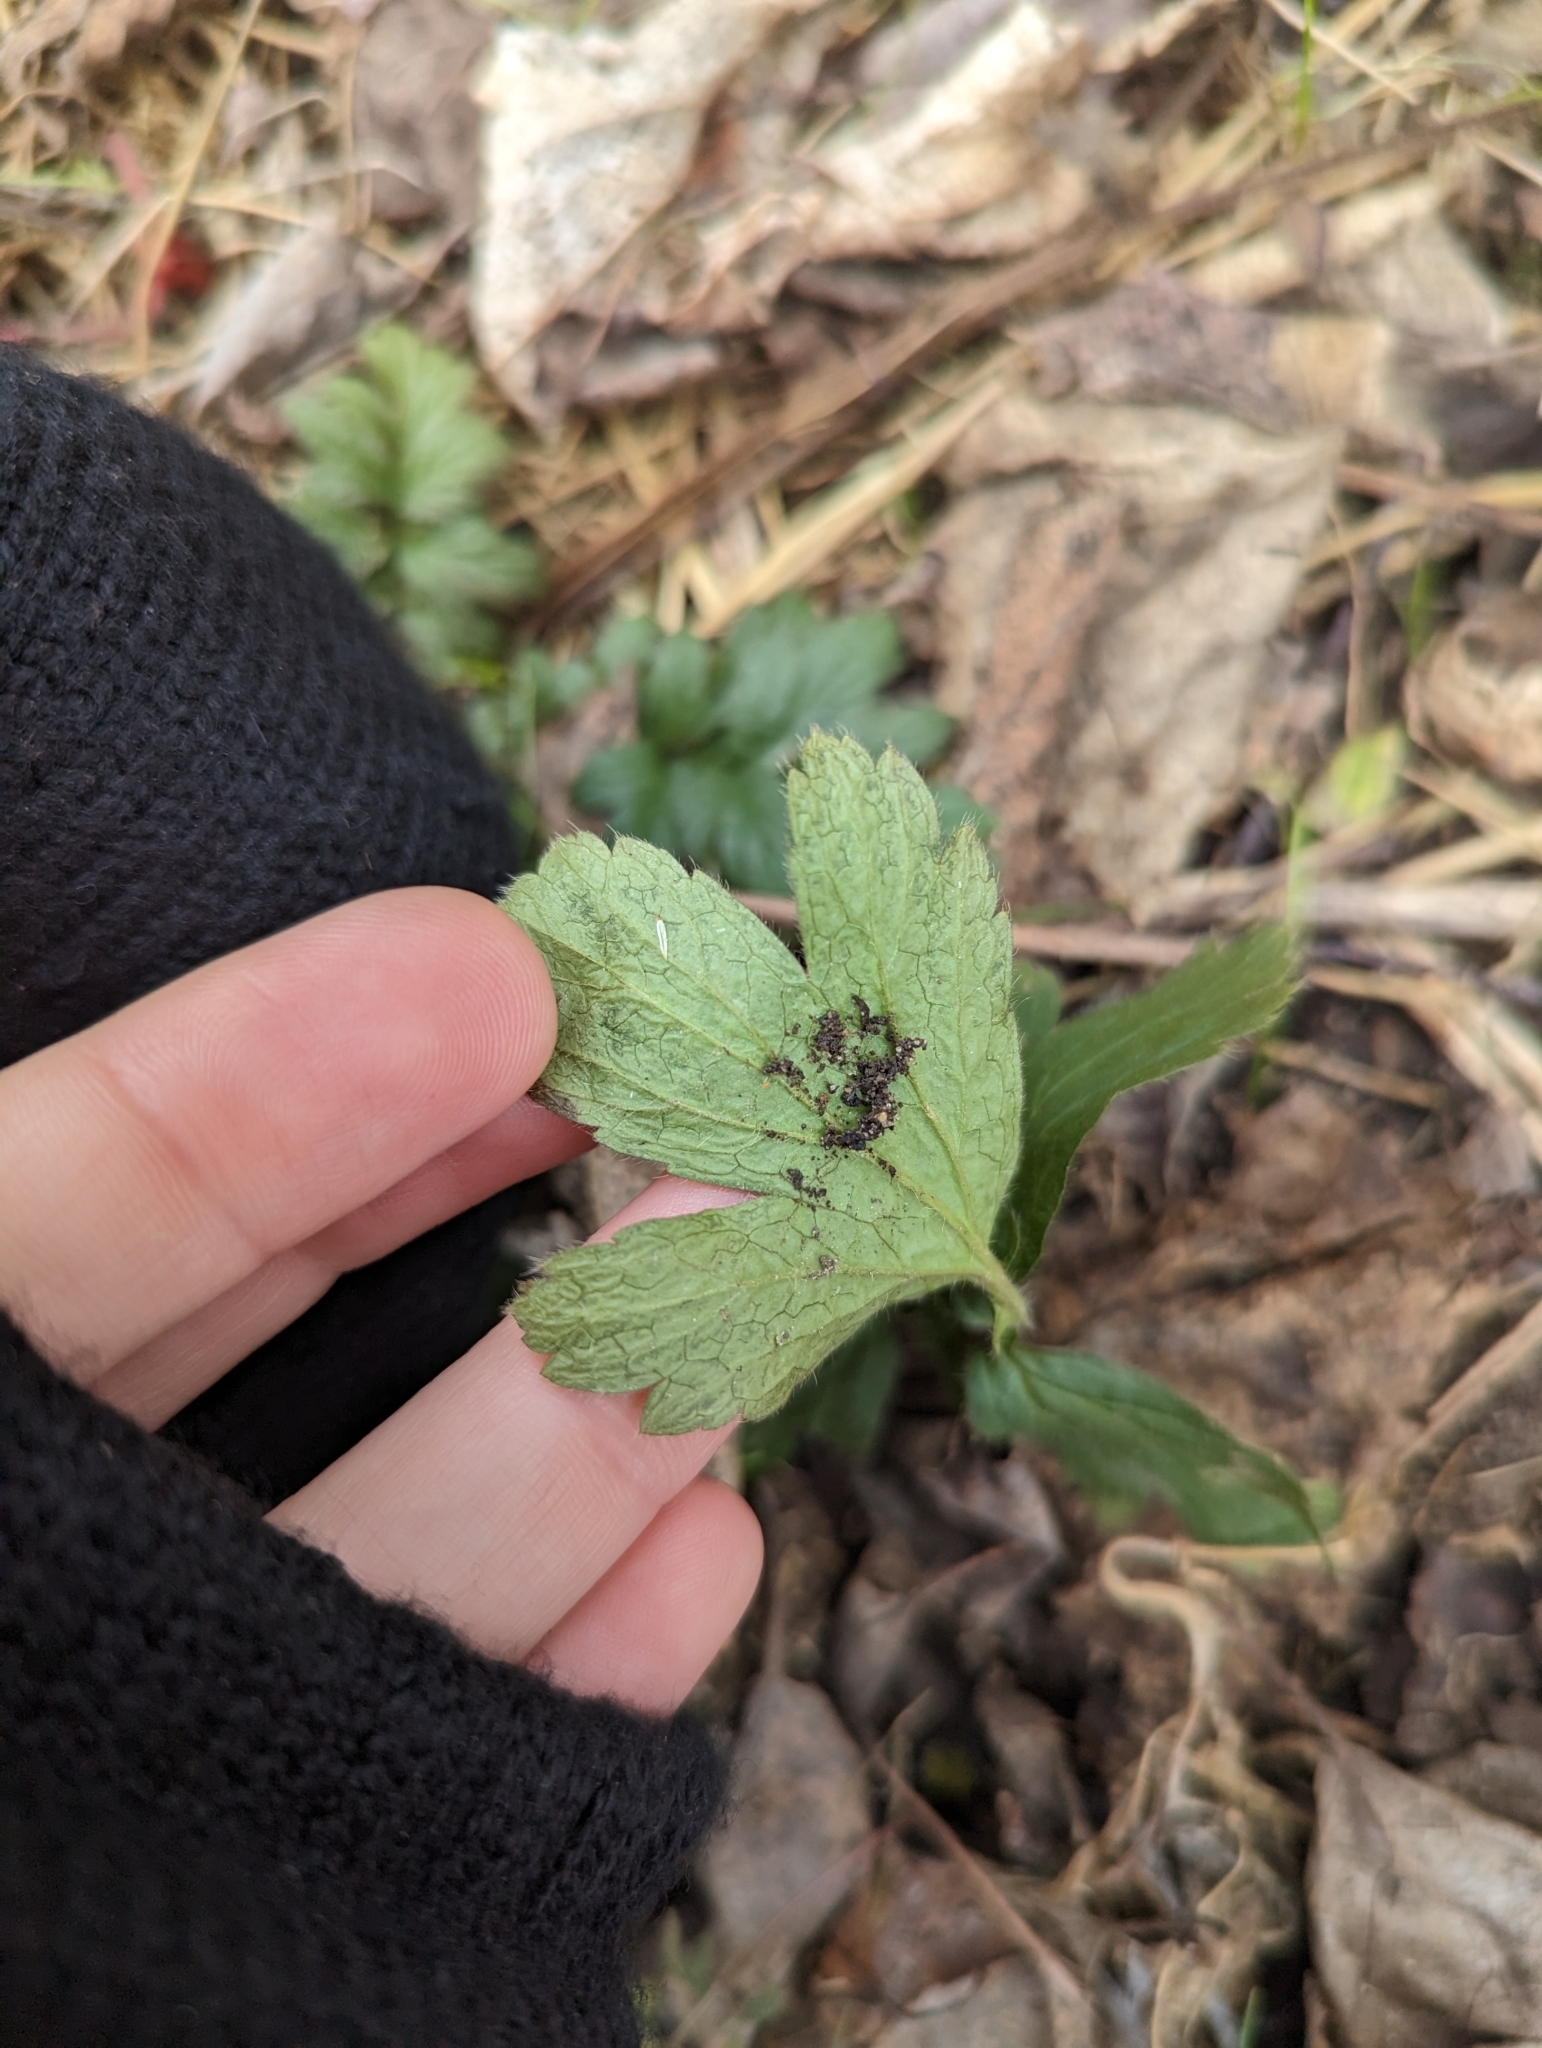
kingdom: Plantae
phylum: Tracheophyta
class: Magnoliopsida
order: Boraginales
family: Hydrophyllaceae
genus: Hydrophyllum
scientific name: Hydrophyllum virginianum
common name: Virginia waterleaf
